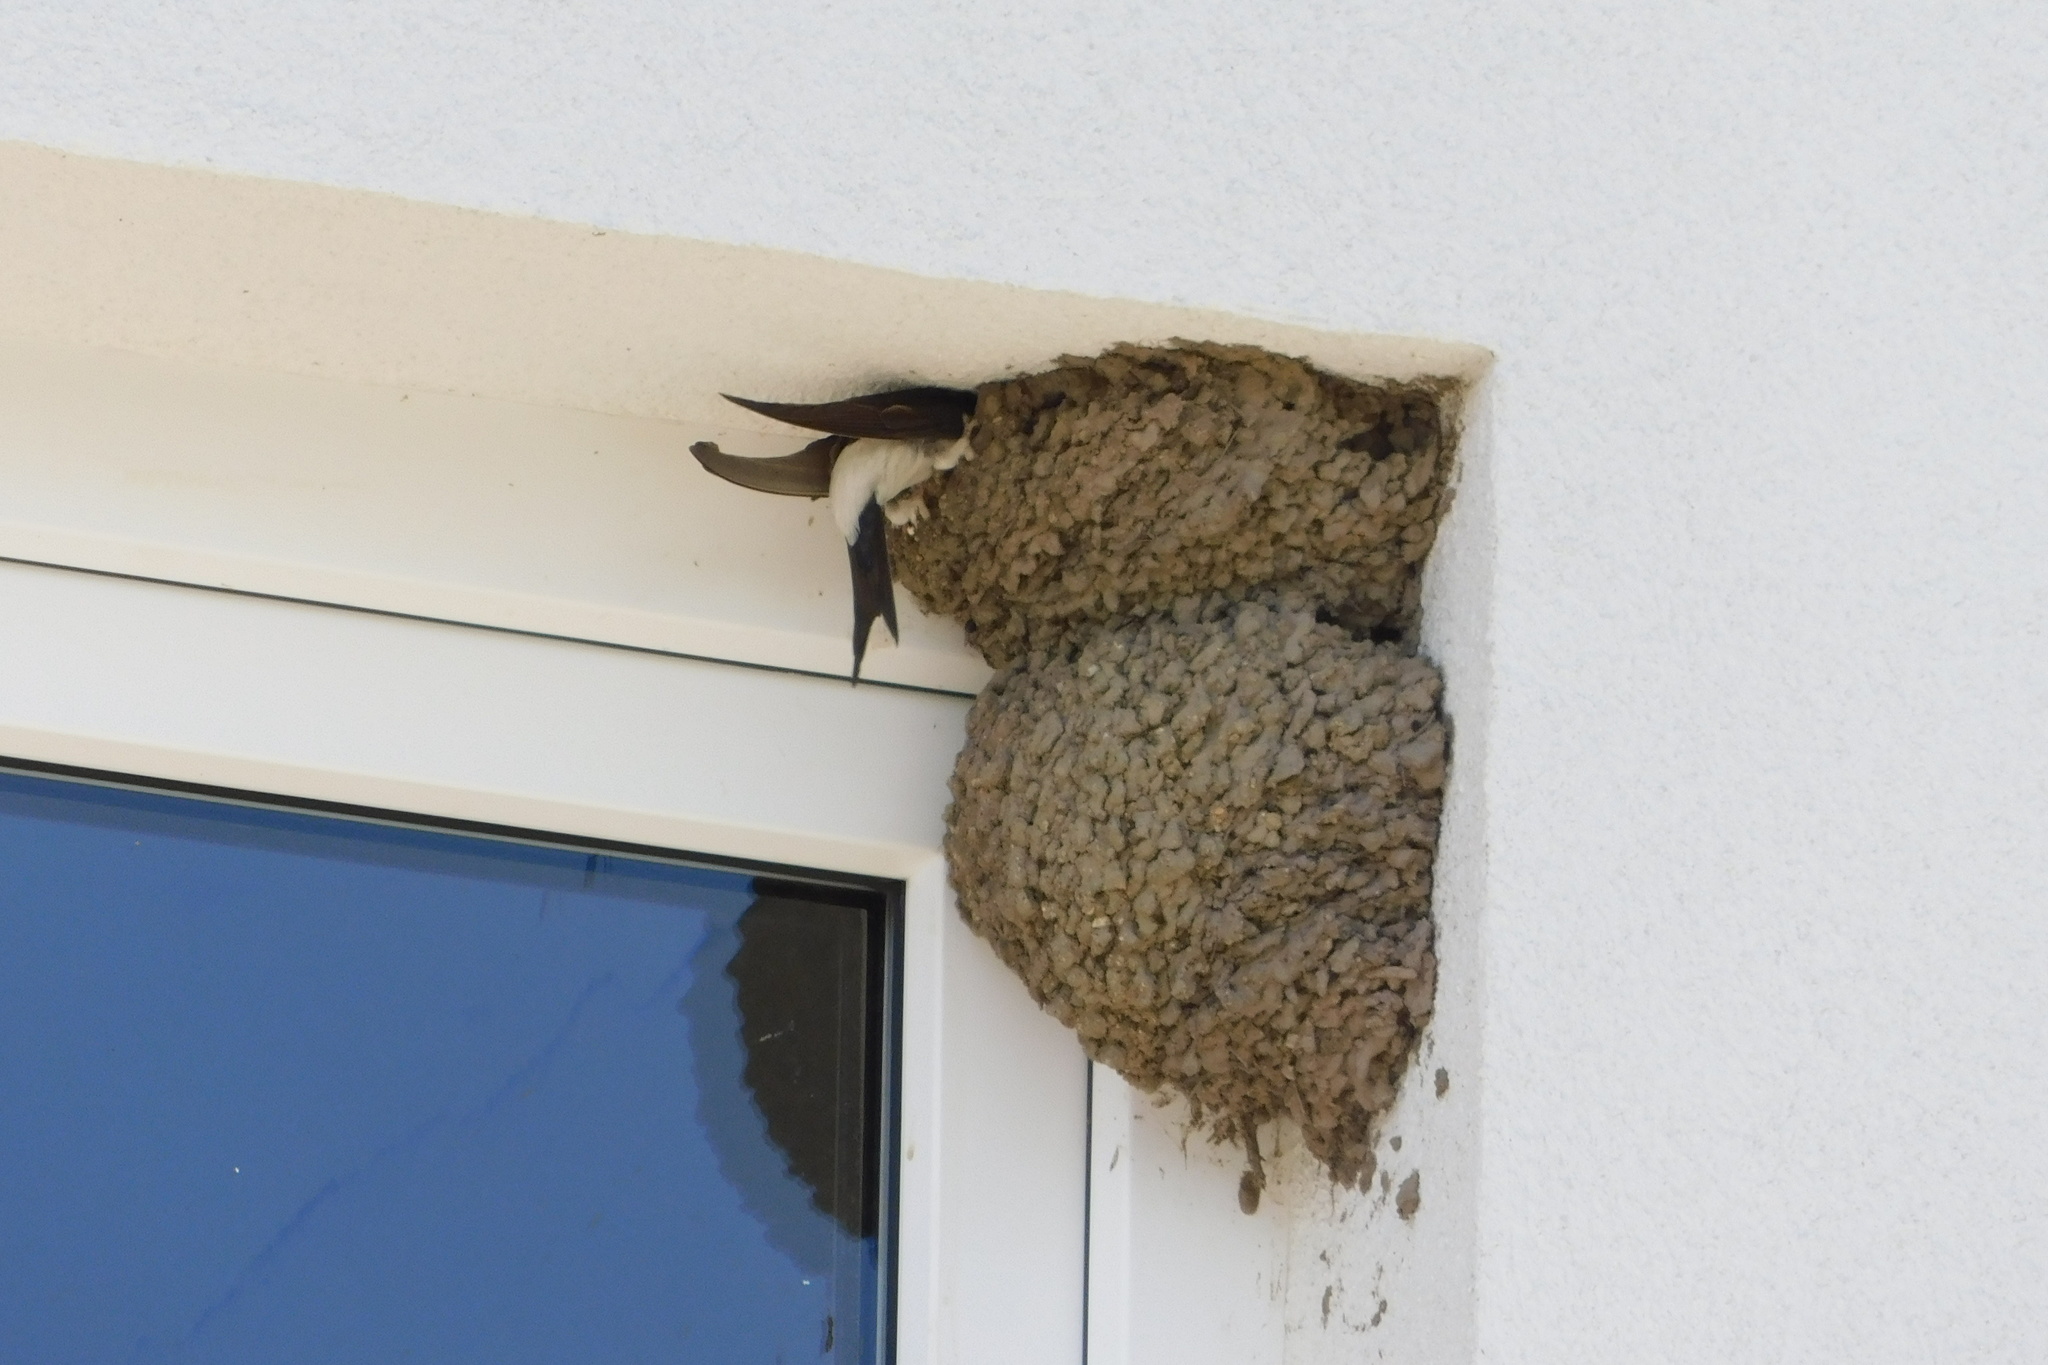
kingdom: Animalia
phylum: Chordata
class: Aves
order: Passeriformes
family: Hirundinidae
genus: Delichon
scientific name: Delichon urbicum
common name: Common house martin
